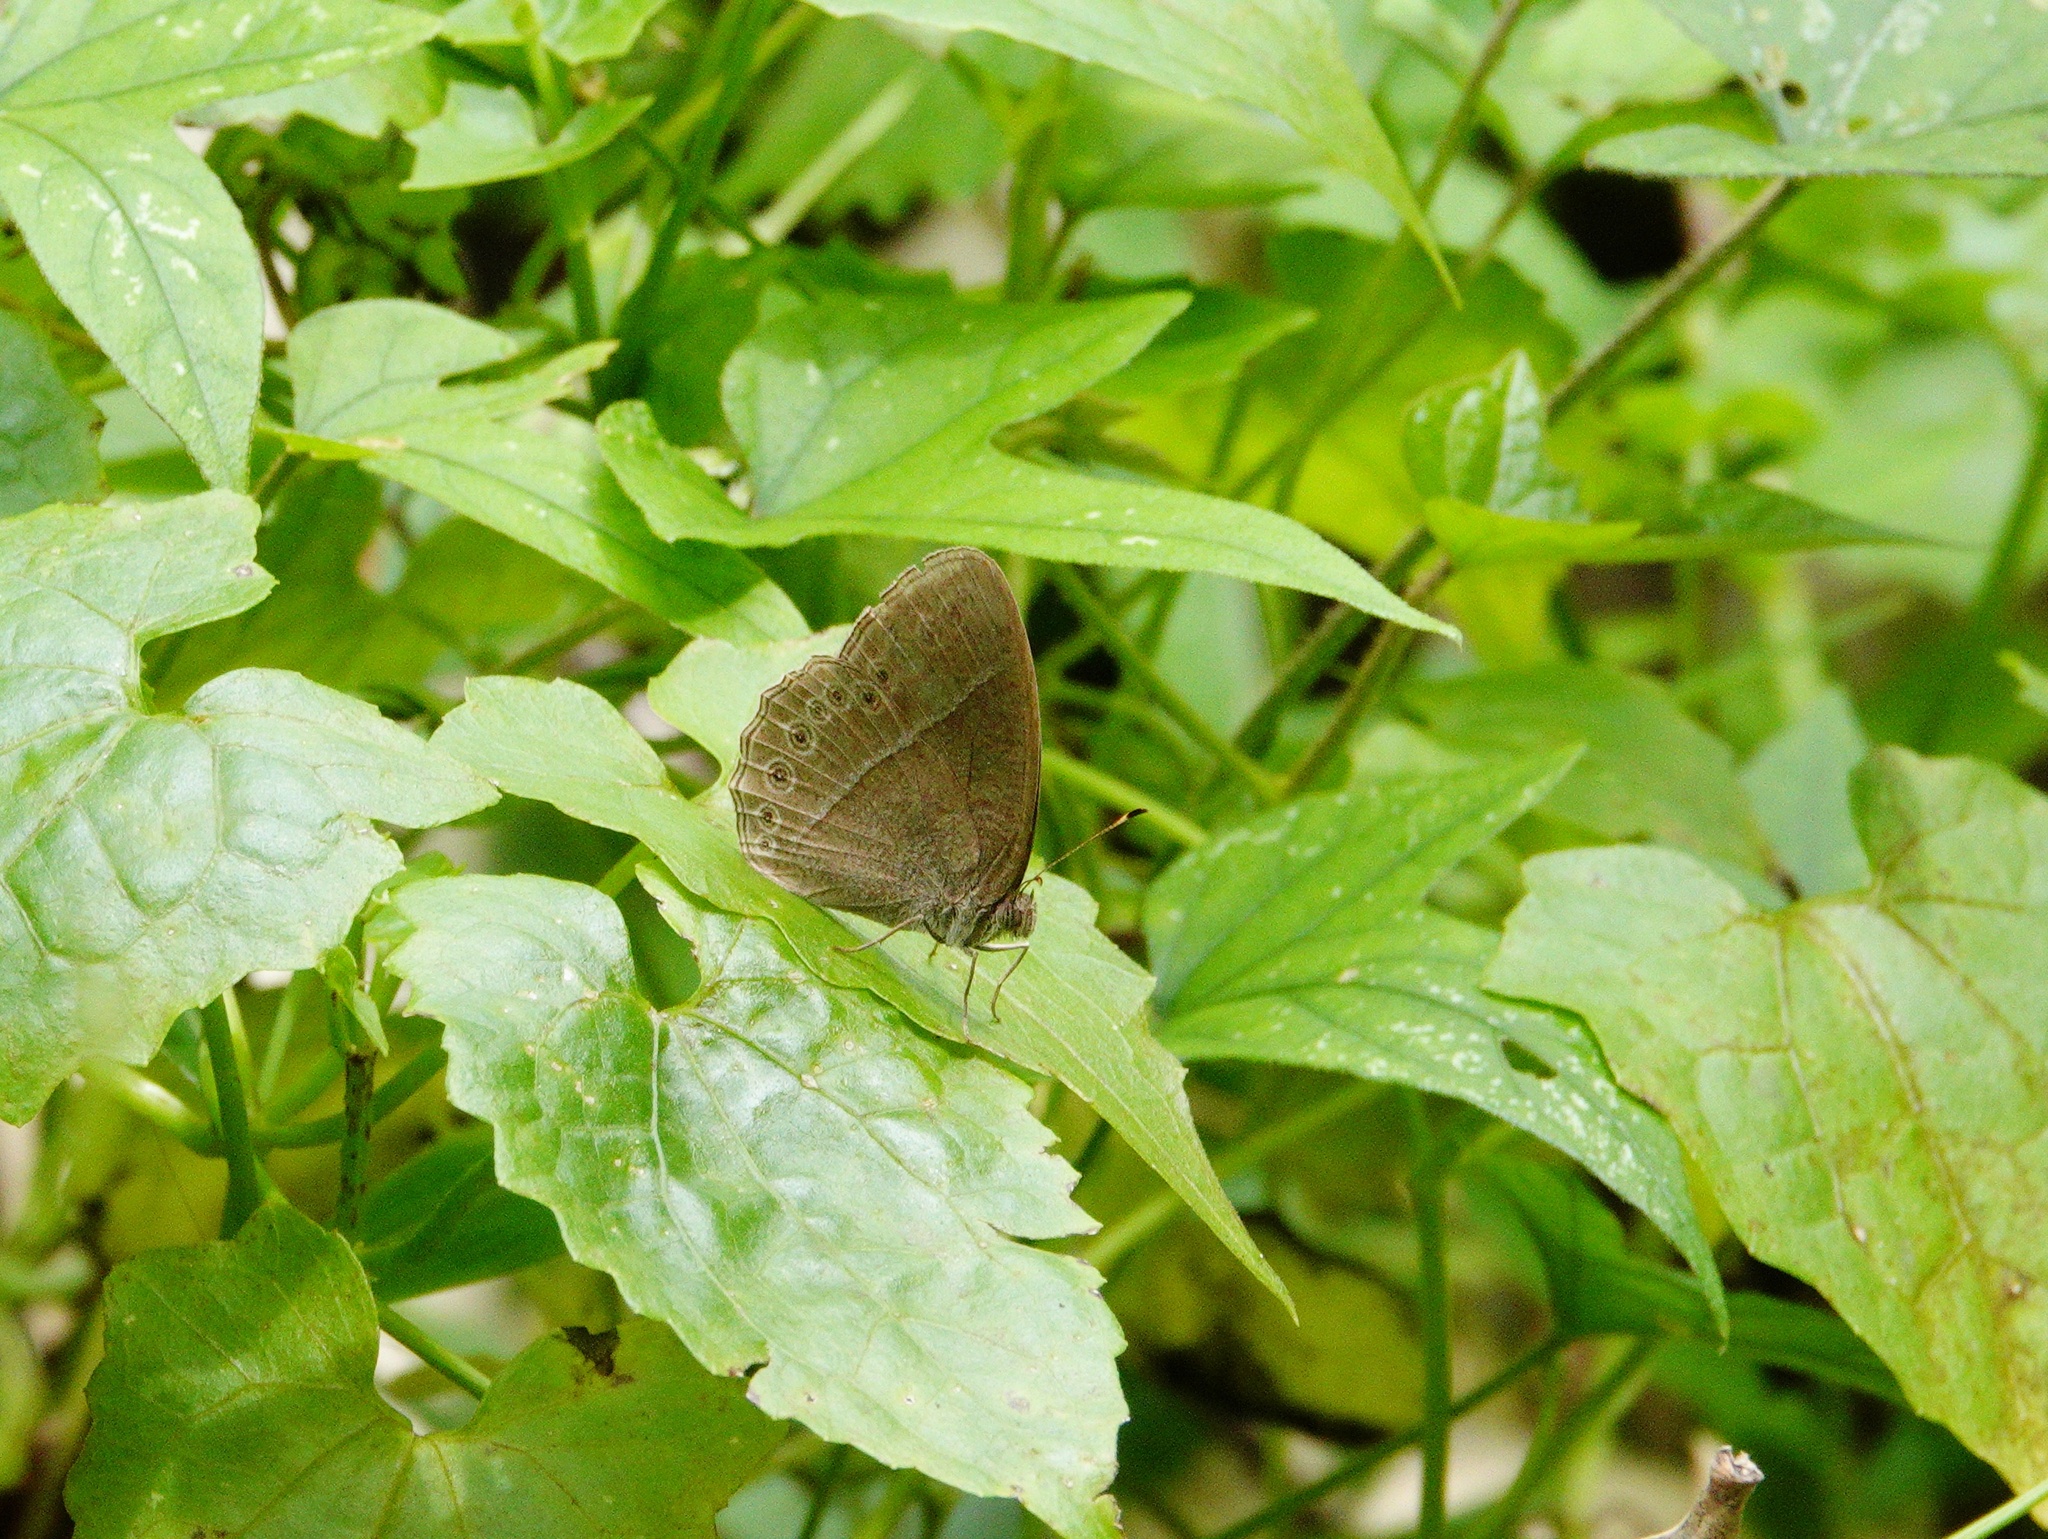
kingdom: Animalia
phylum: Arthropoda
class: Insecta
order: Lepidoptera
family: Nymphalidae
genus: Mycalesis
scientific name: Mycalesis Telinga janardana
